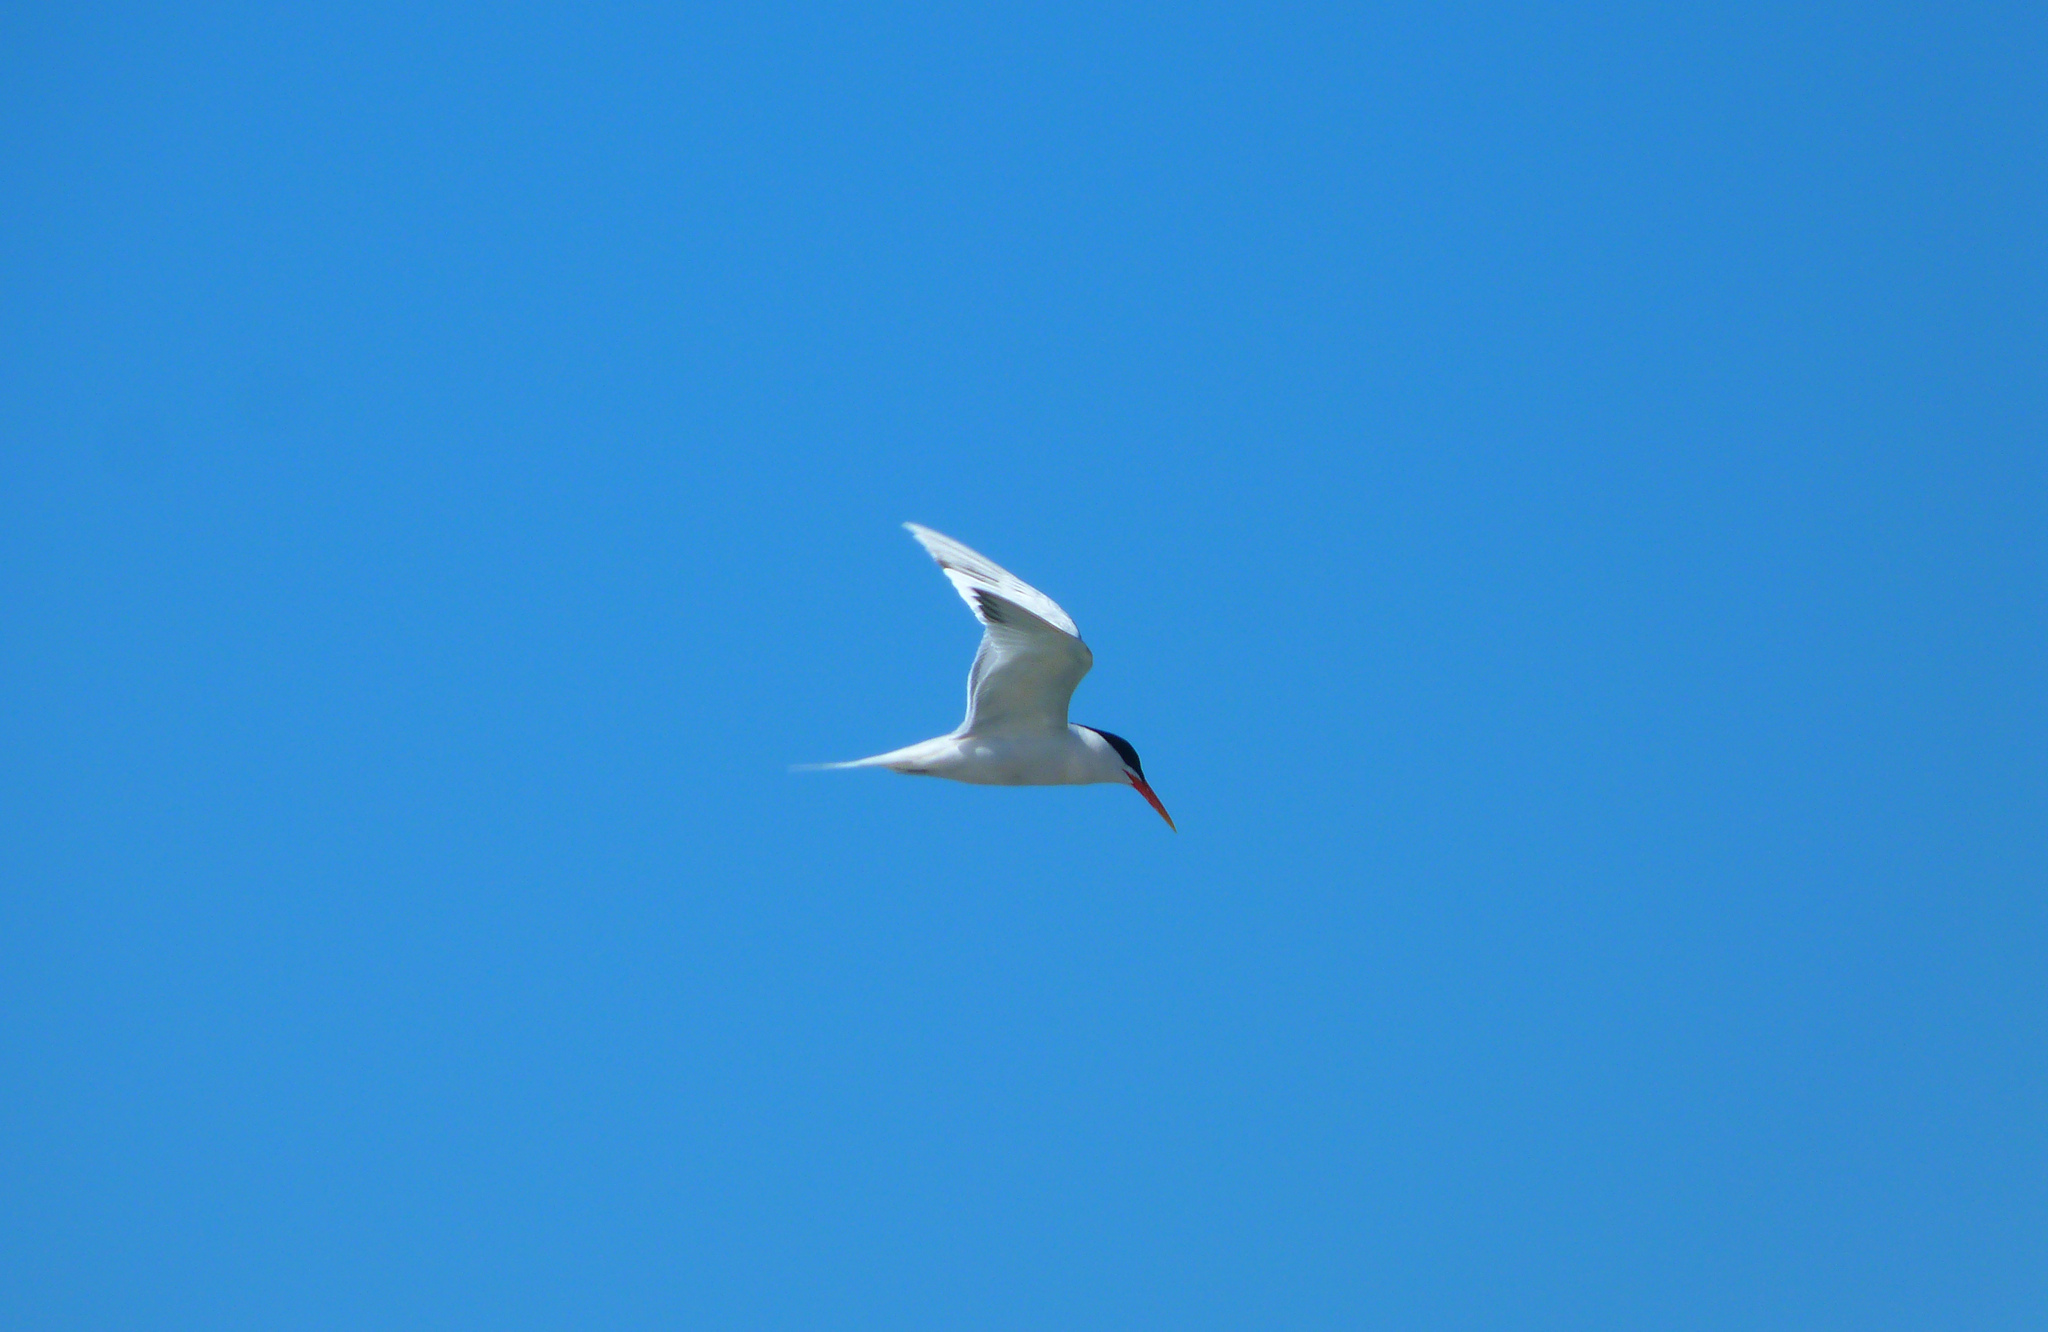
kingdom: Animalia
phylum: Chordata
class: Aves
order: Charadriiformes
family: Laridae
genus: Thalasseus
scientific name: Thalasseus elegans
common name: Elegant tern
